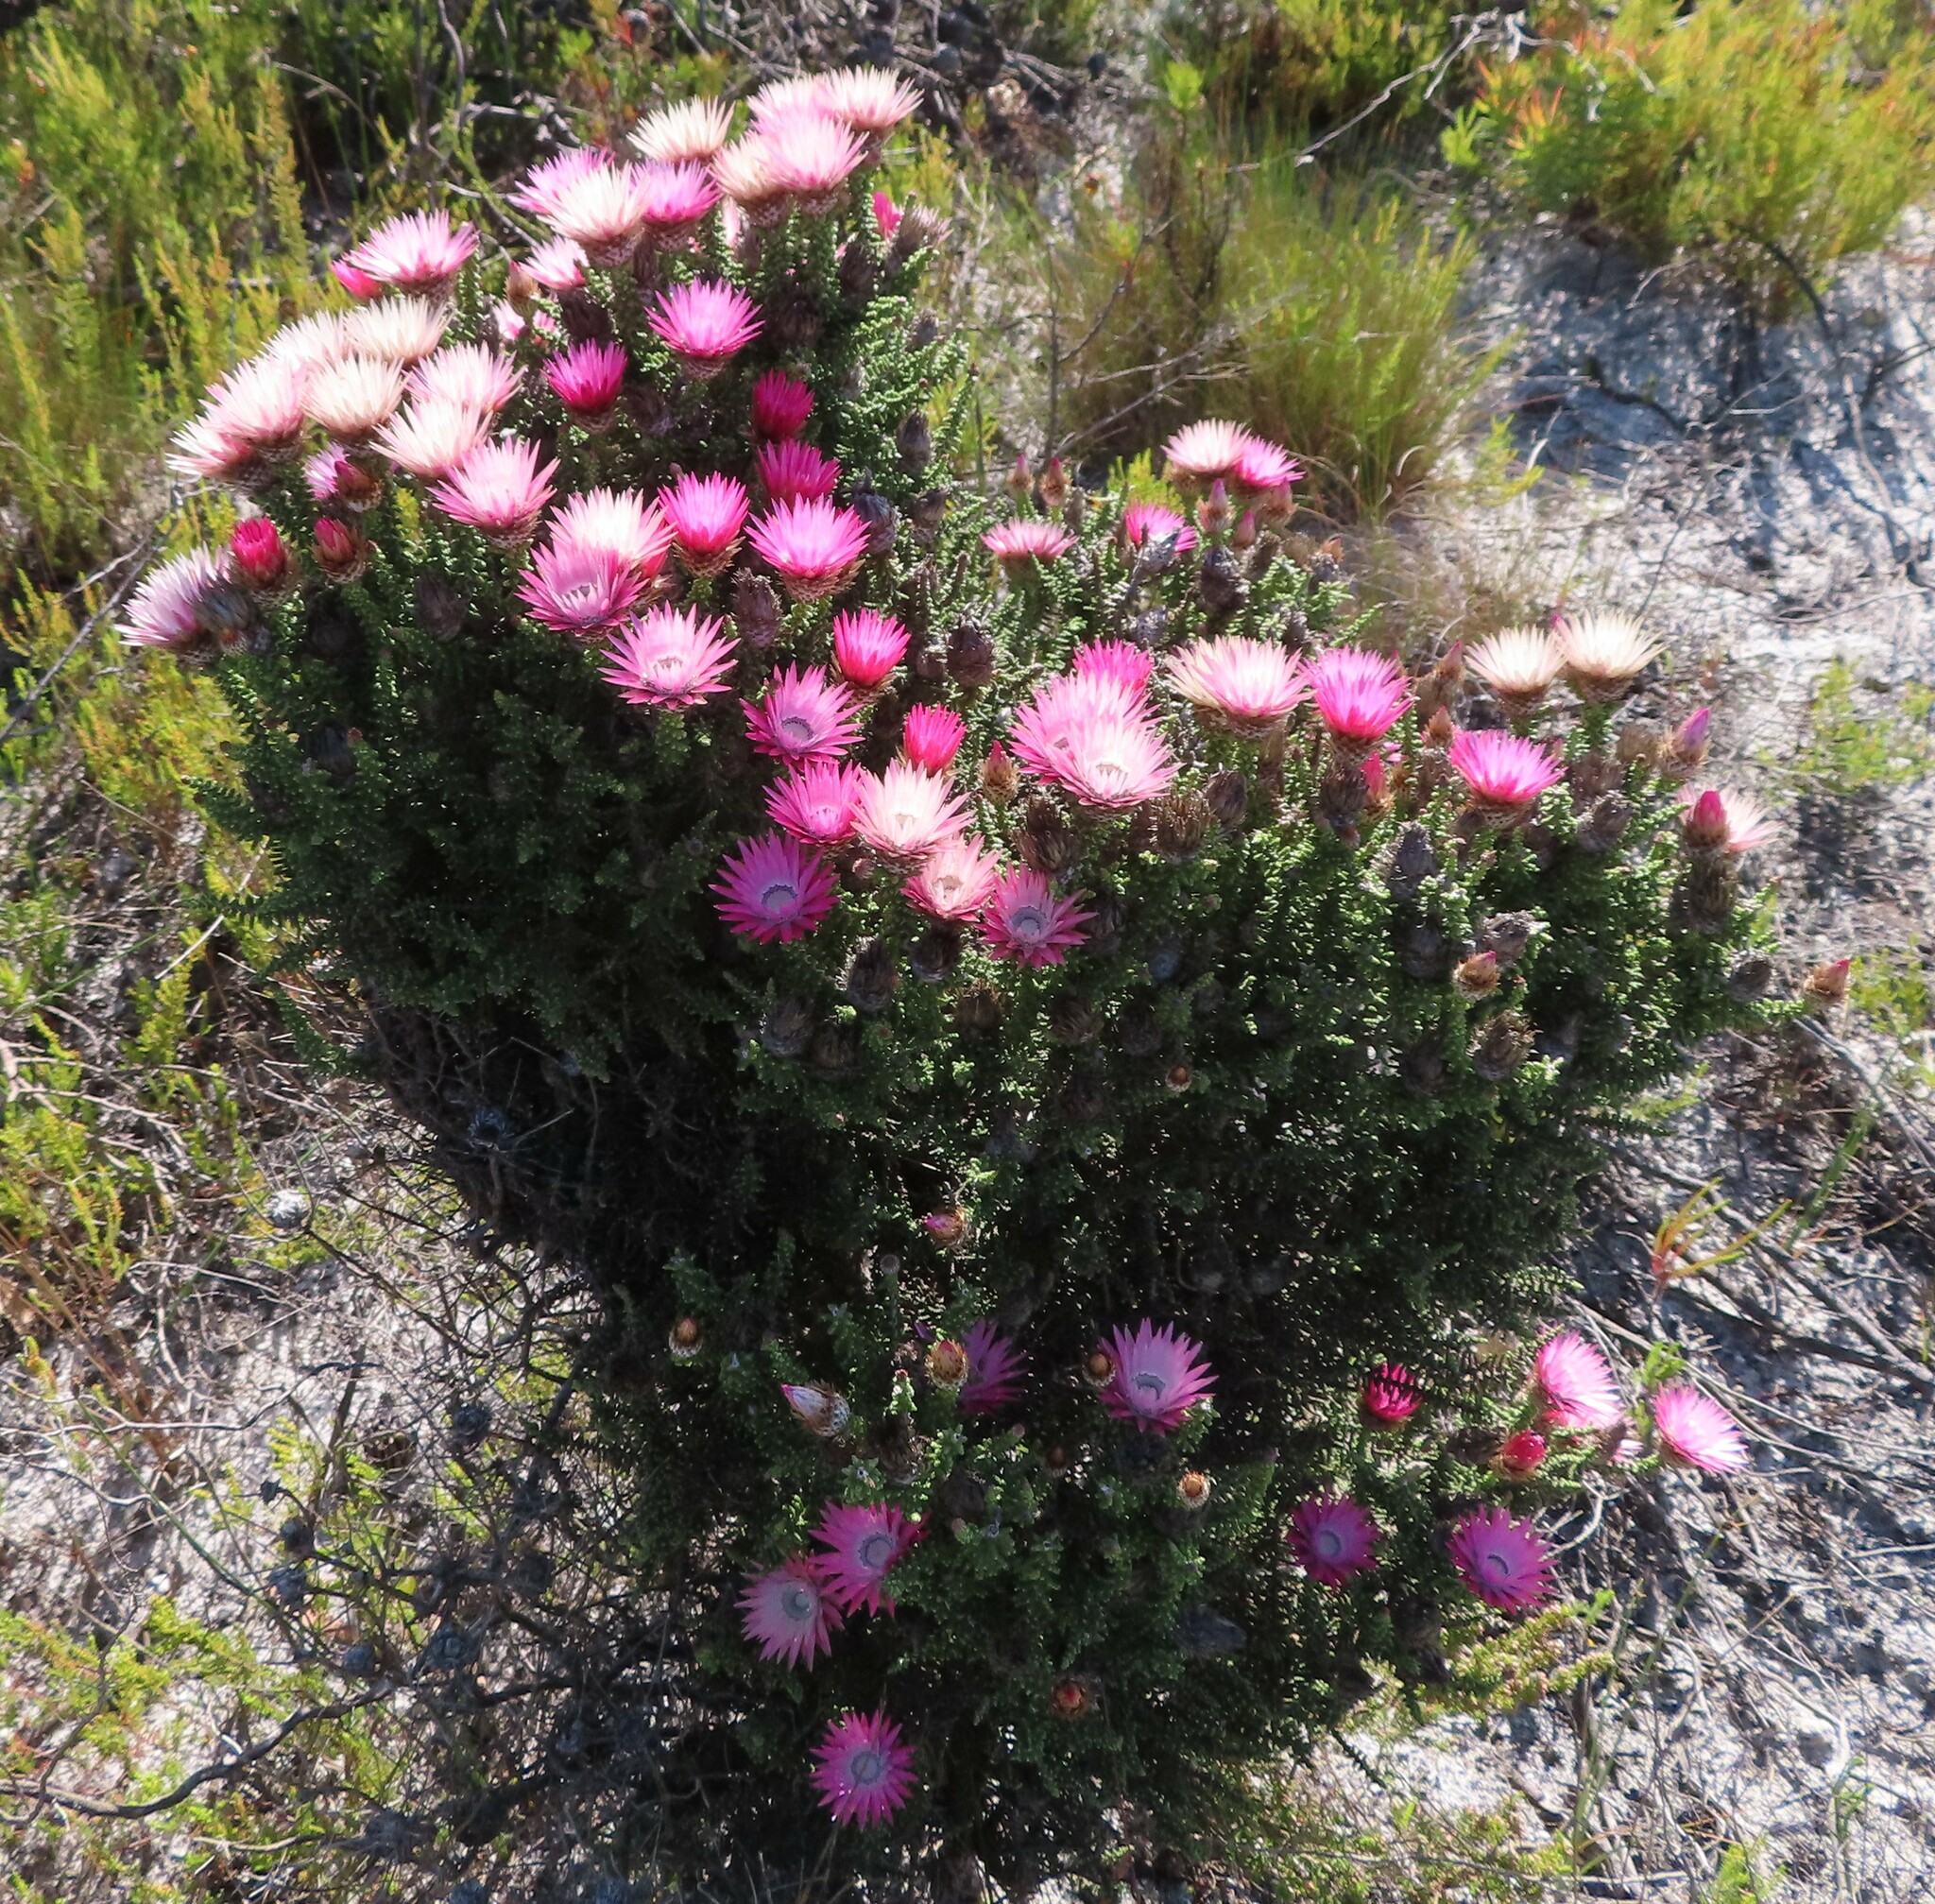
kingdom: Plantae
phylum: Tracheophyta
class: Magnoliopsida
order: Asterales
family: Asteraceae
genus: Phaenocoma
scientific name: Phaenocoma prolifera
